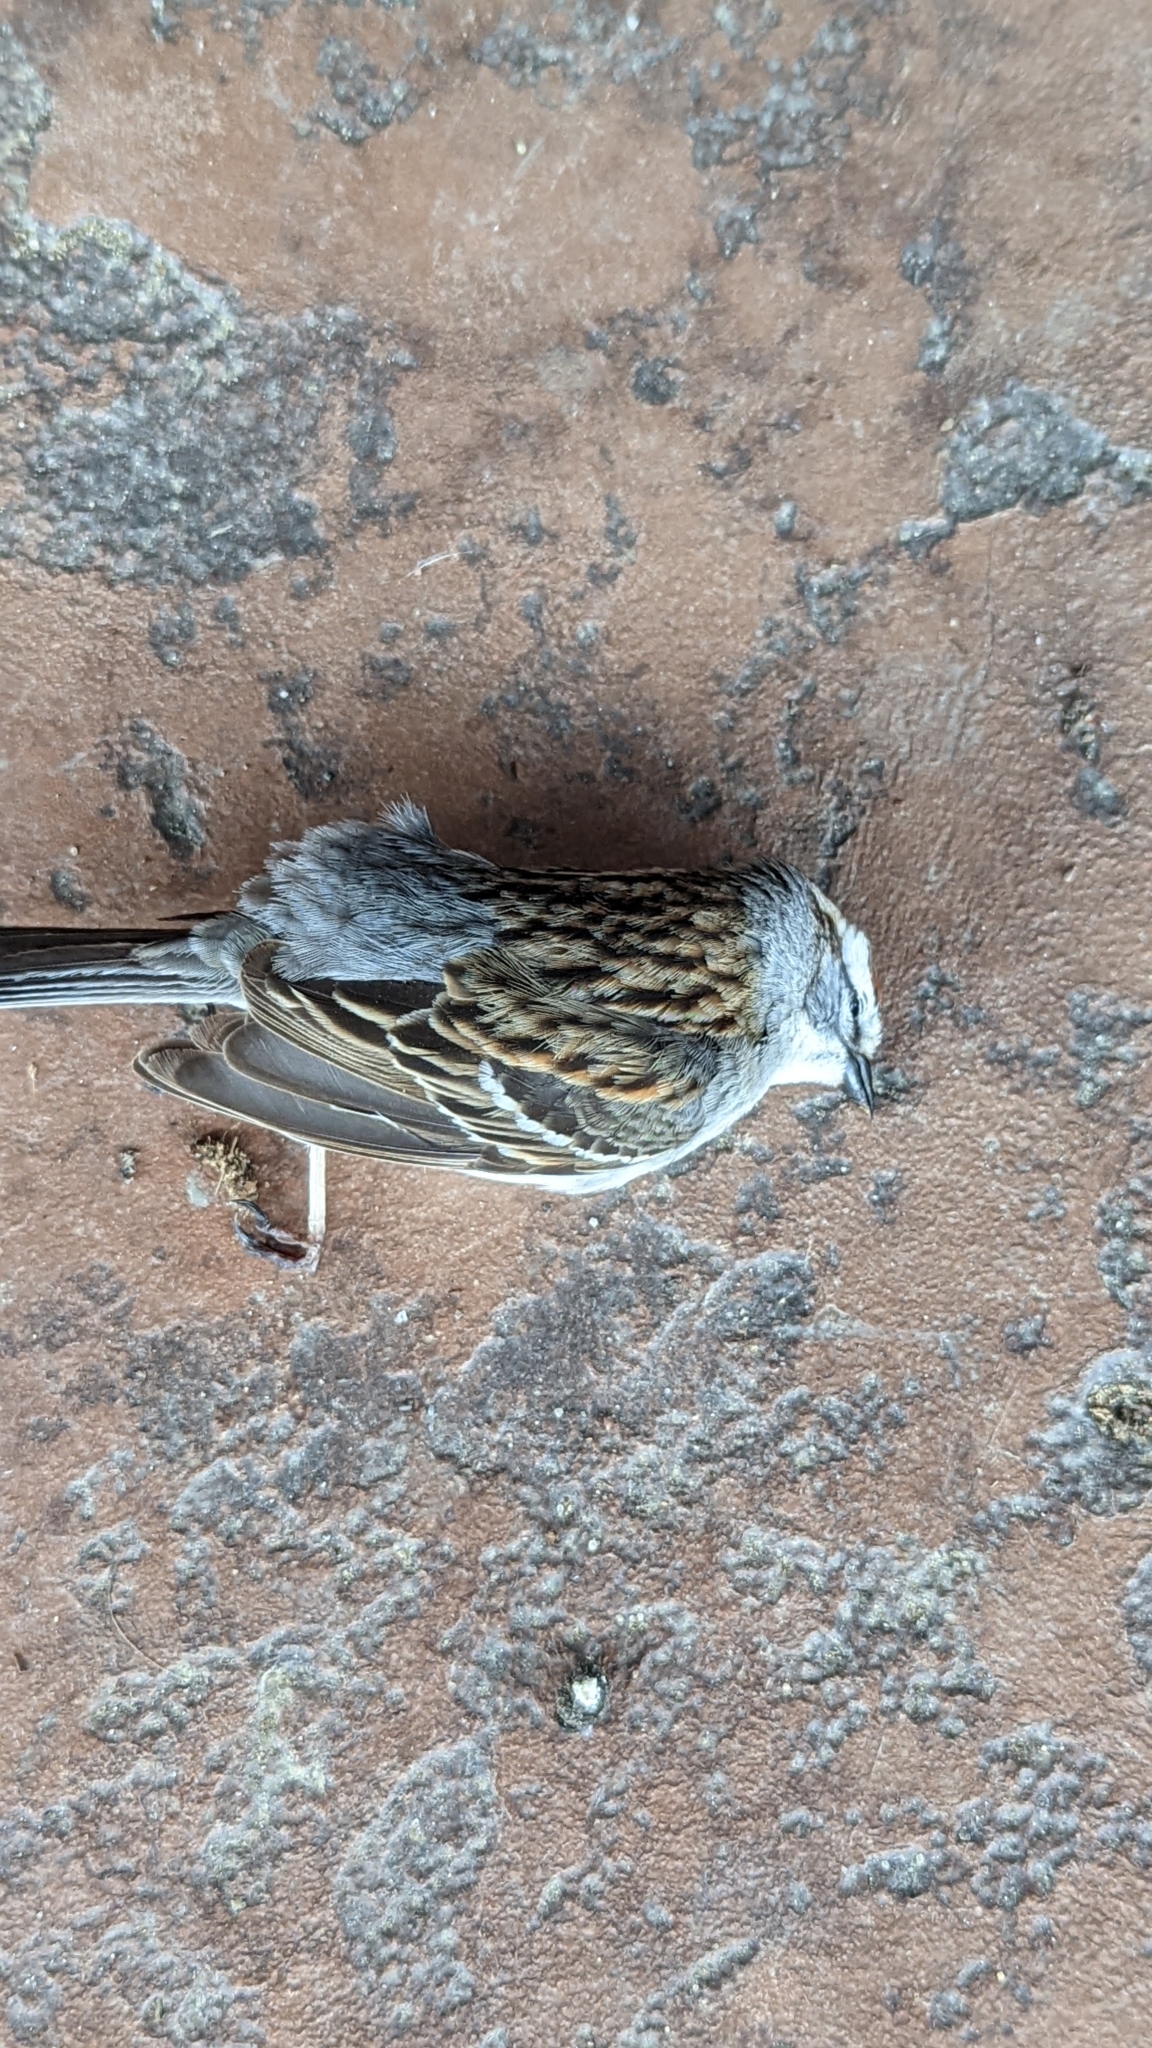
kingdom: Animalia
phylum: Chordata
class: Aves
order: Passeriformes
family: Passerellidae
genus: Spizella
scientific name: Spizella passerina
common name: Chipping sparrow
